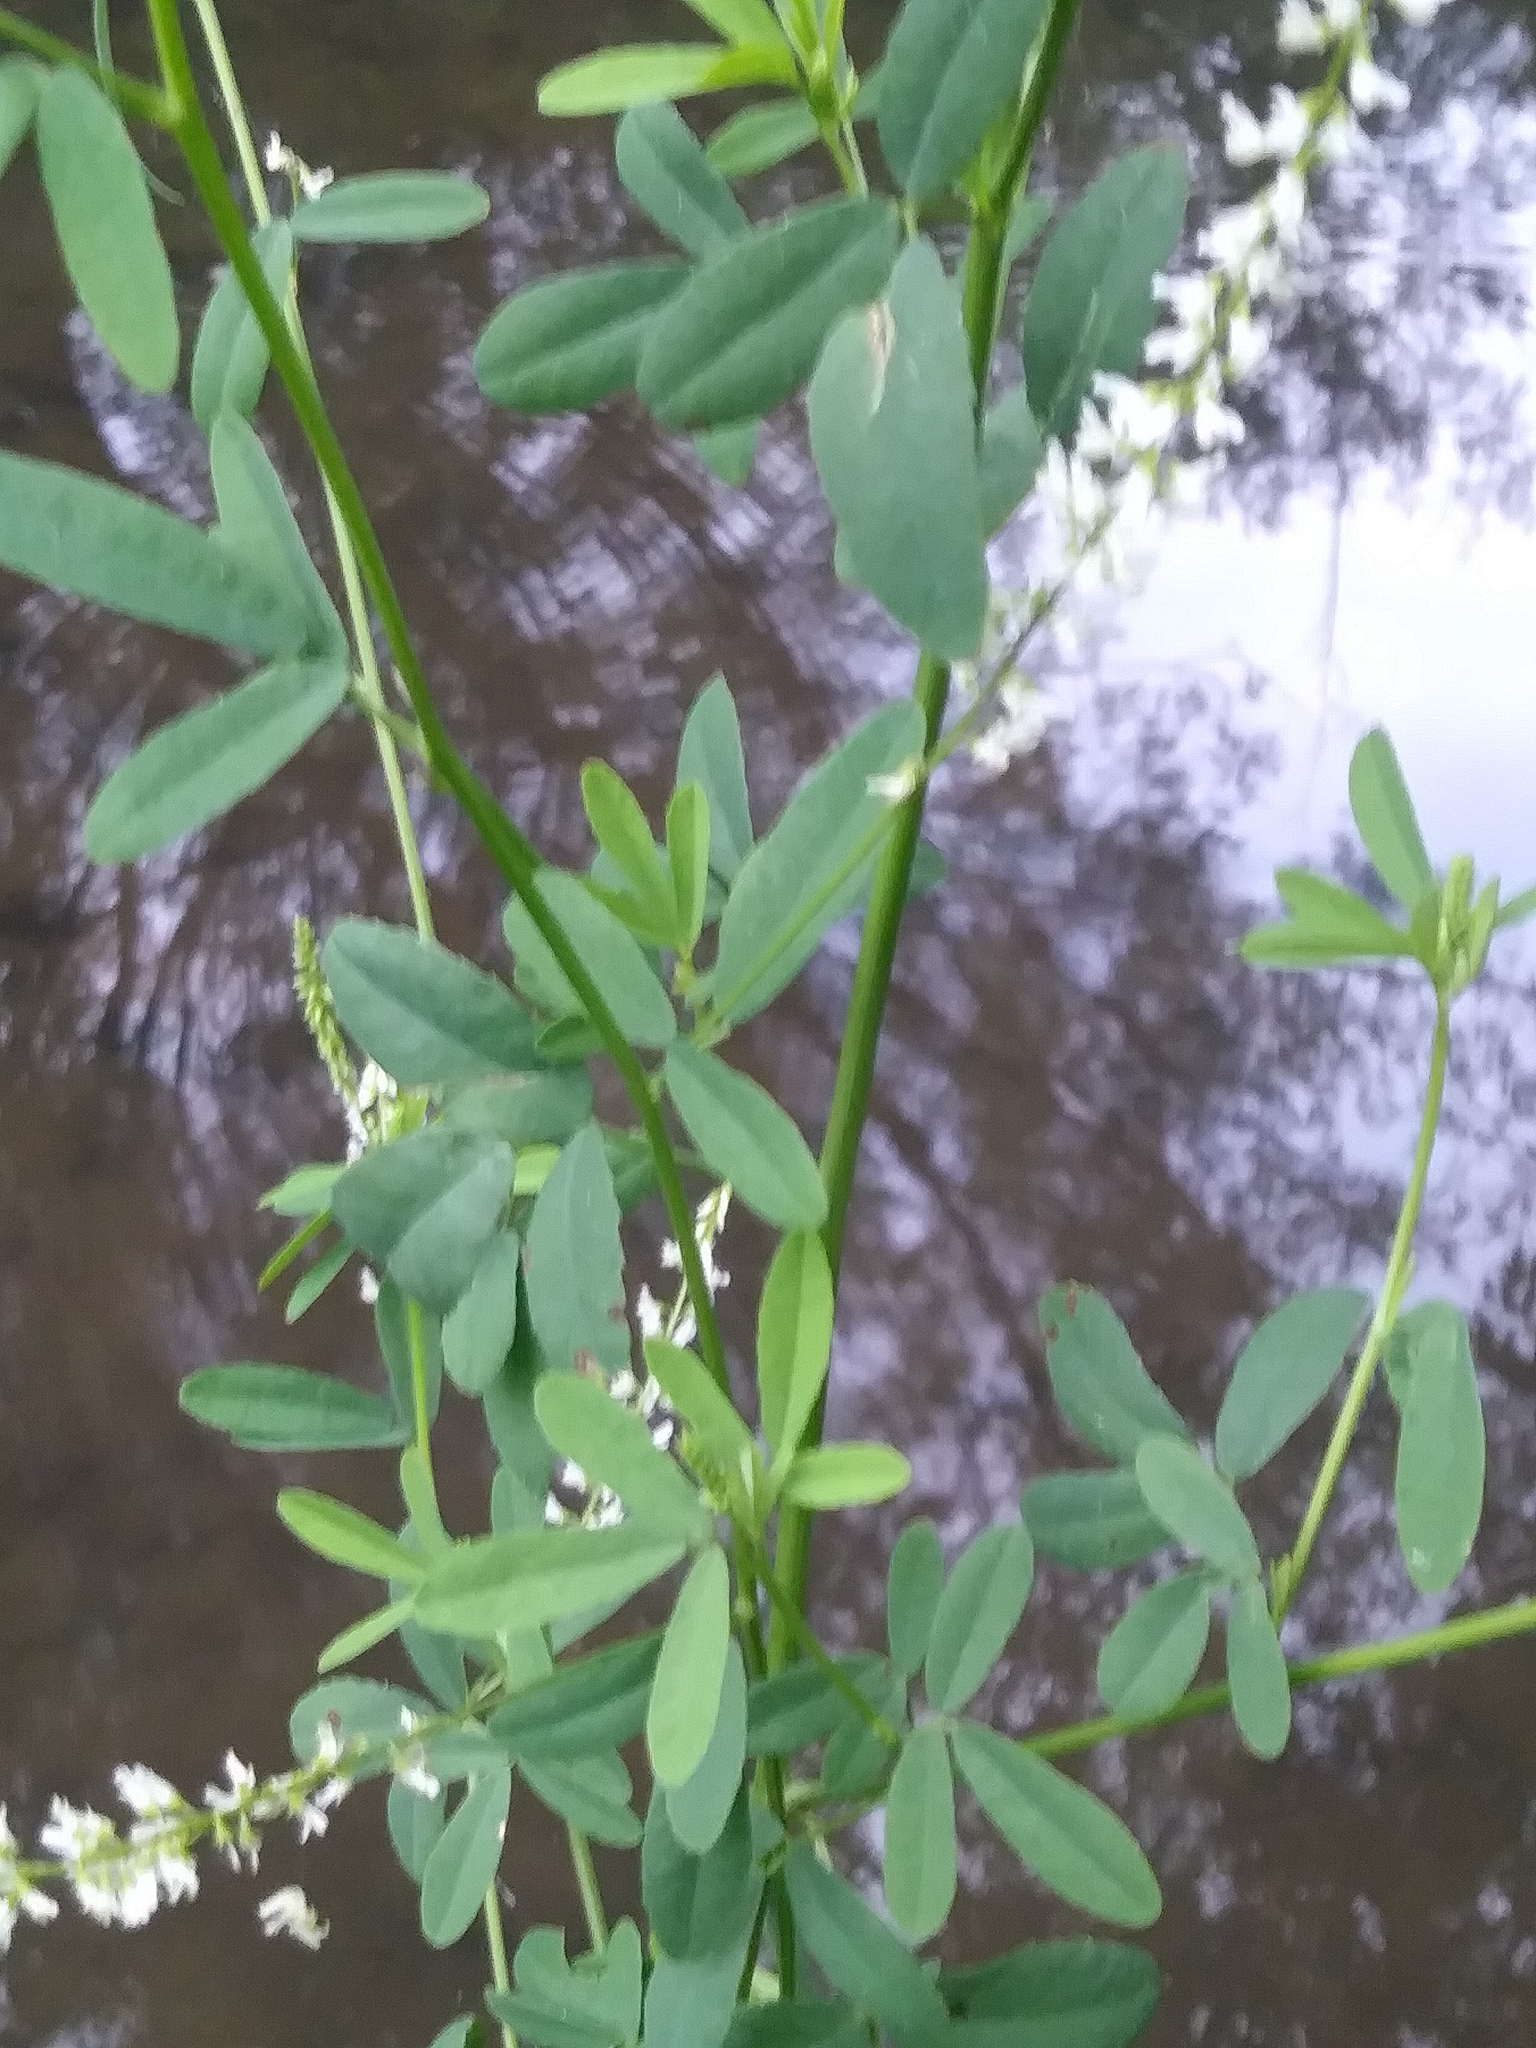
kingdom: Plantae
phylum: Tracheophyta
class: Magnoliopsida
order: Fabales
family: Fabaceae
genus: Melilotus
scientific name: Melilotus albus
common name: White melilot
